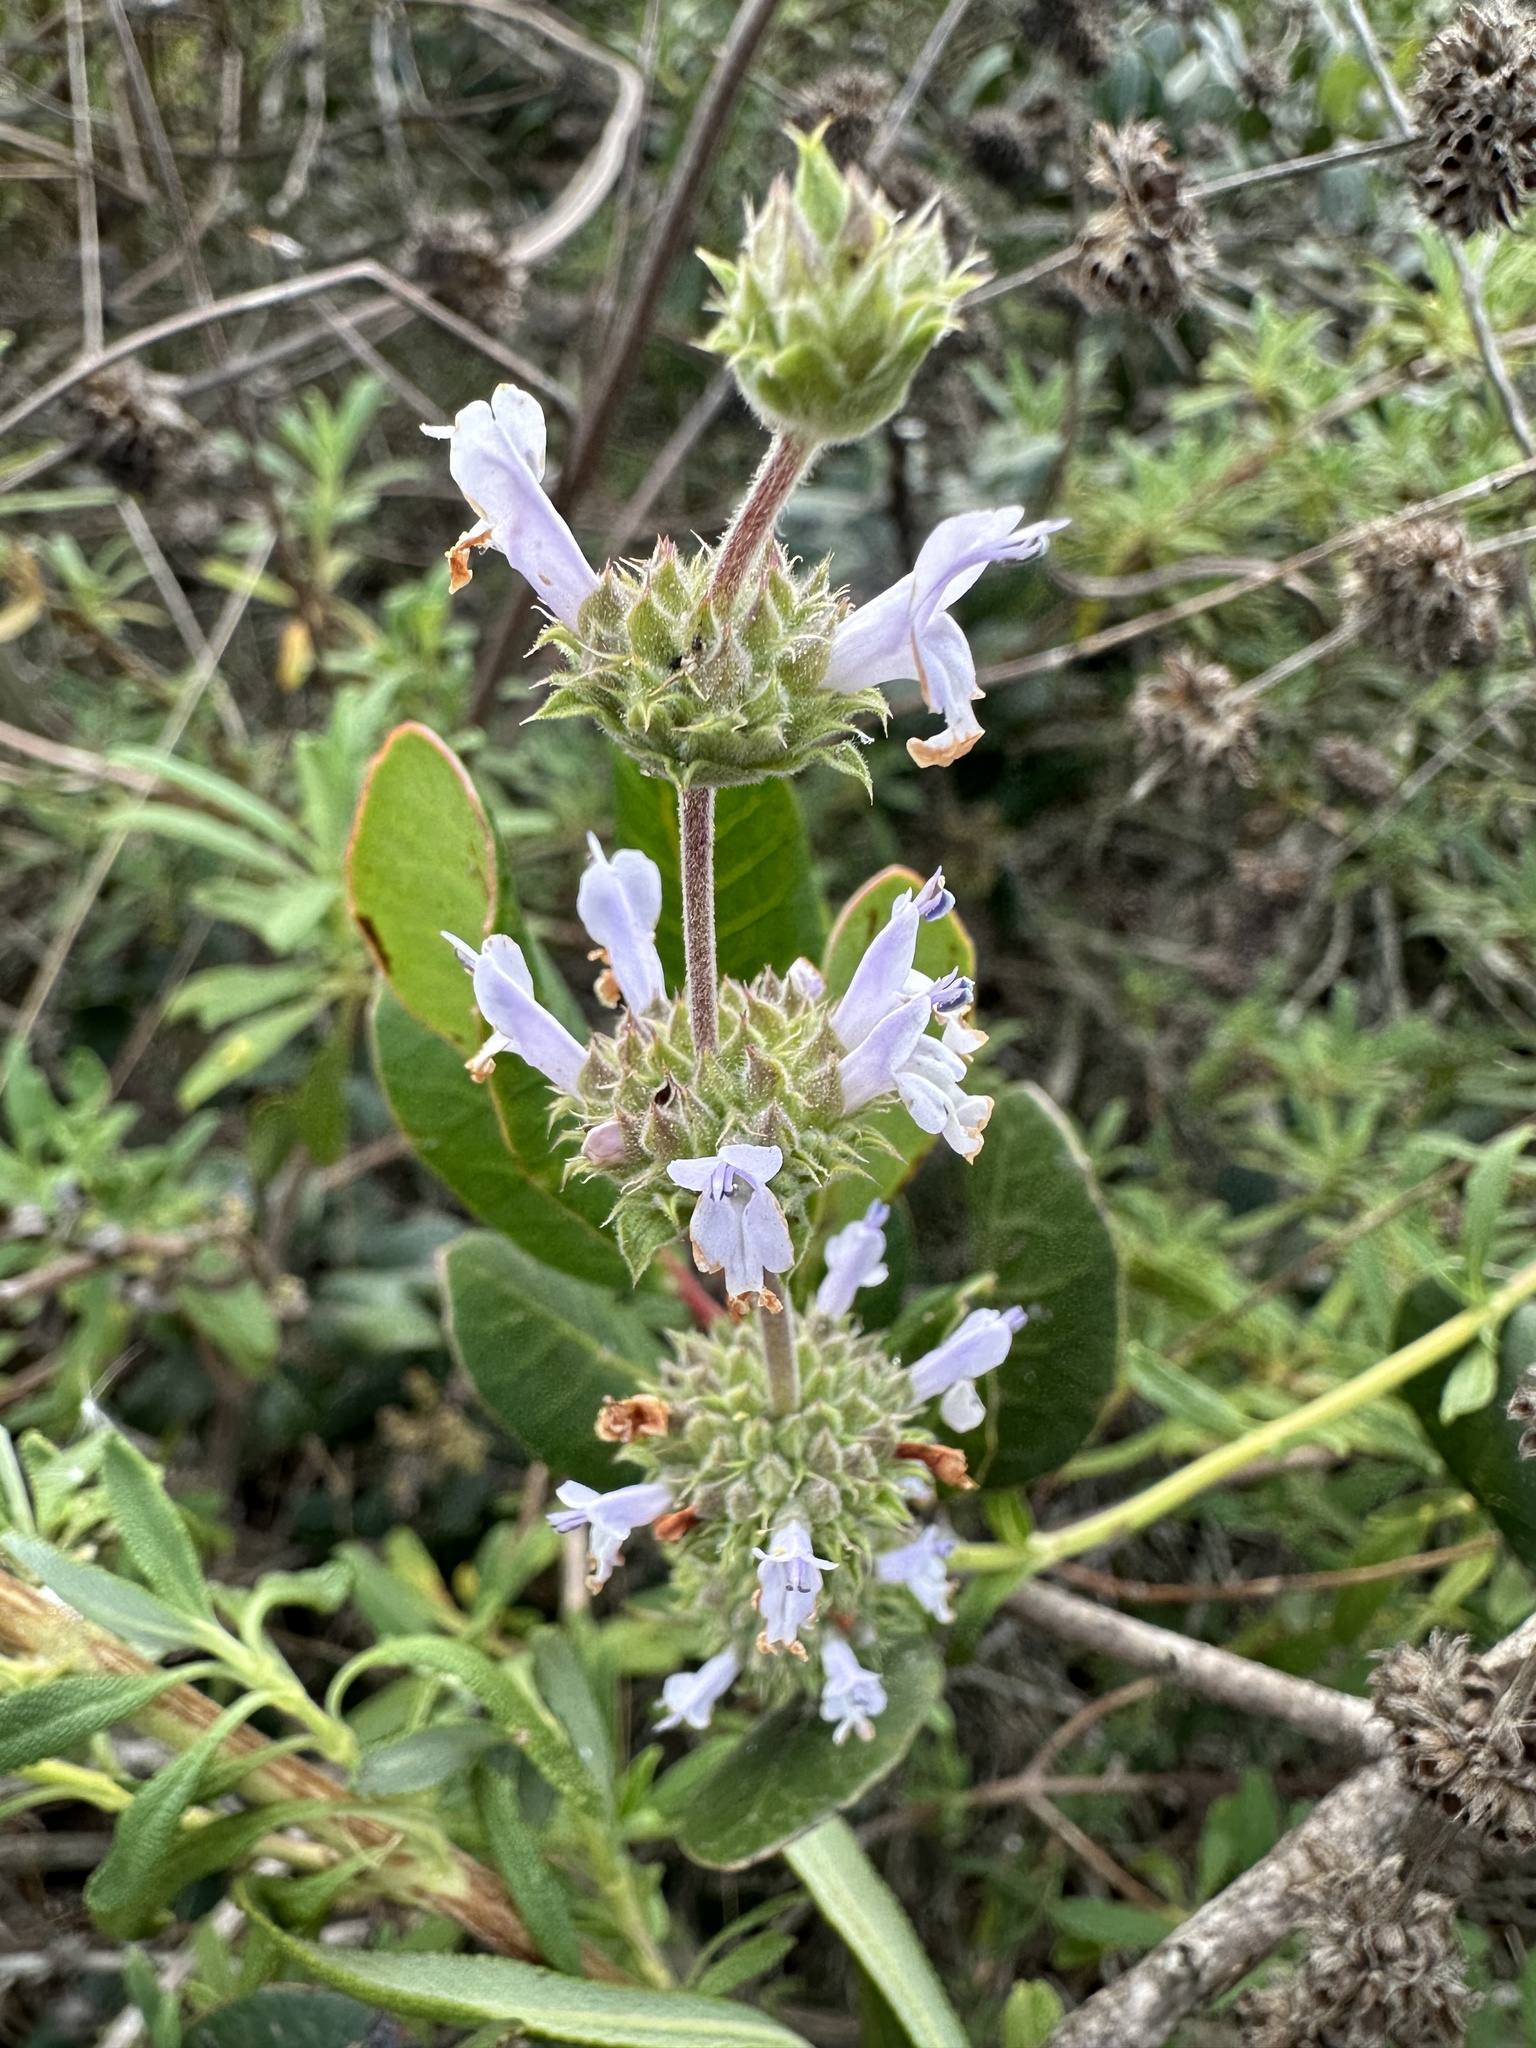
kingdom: Plantae
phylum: Tracheophyta
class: Magnoliopsida
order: Lamiales
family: Lamiaceae
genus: Salvia
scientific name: Salvia mellifera
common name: Black sage
